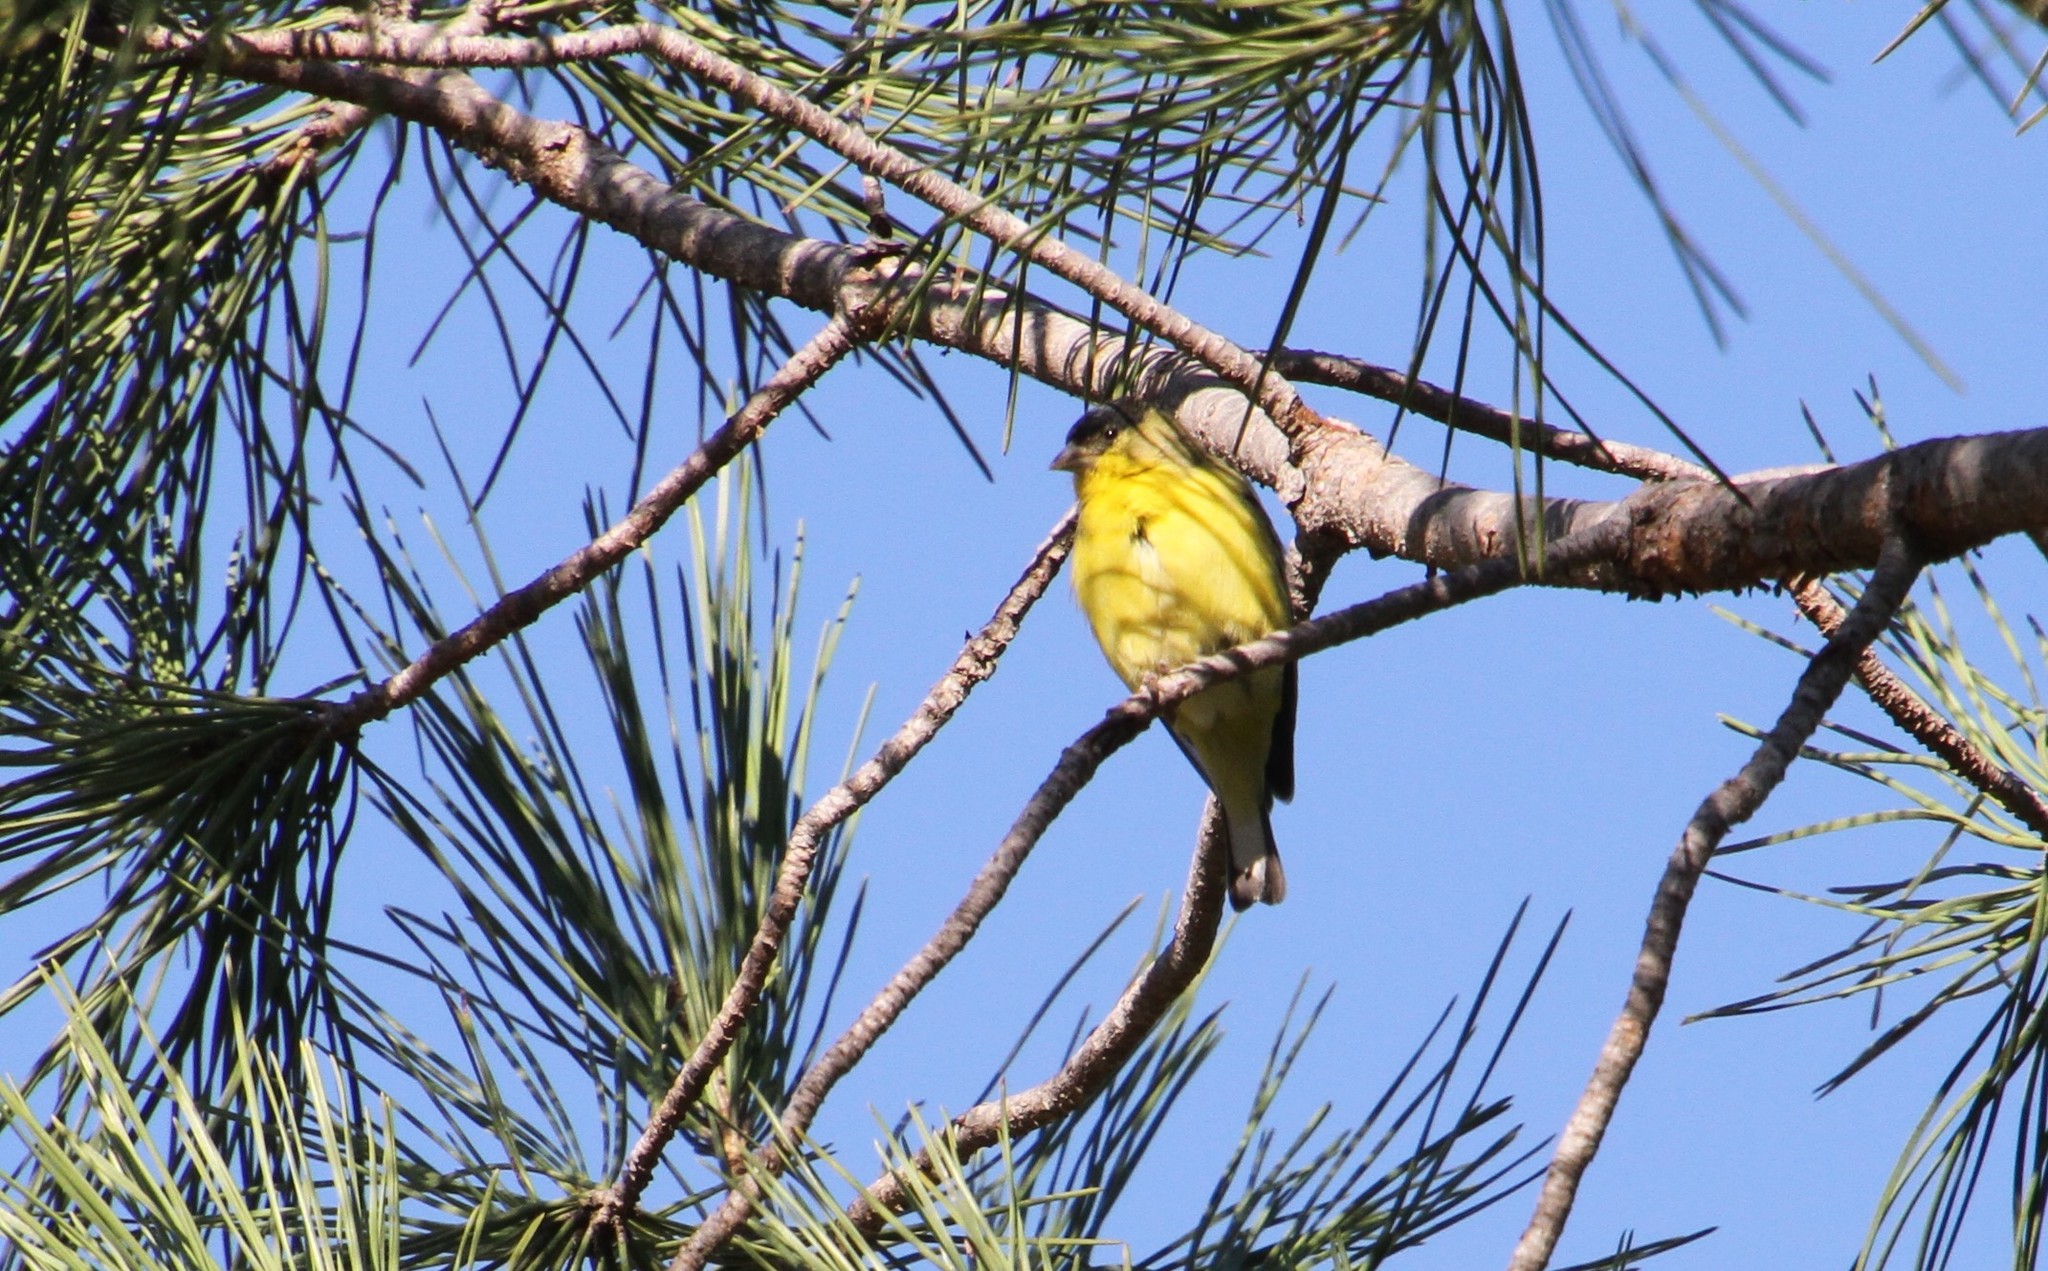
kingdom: Animalia
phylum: Chordata
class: Aves
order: Passeriformes
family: Fringillidae
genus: Spinus
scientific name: Spinus psaltria
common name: Lesser goldfinch
